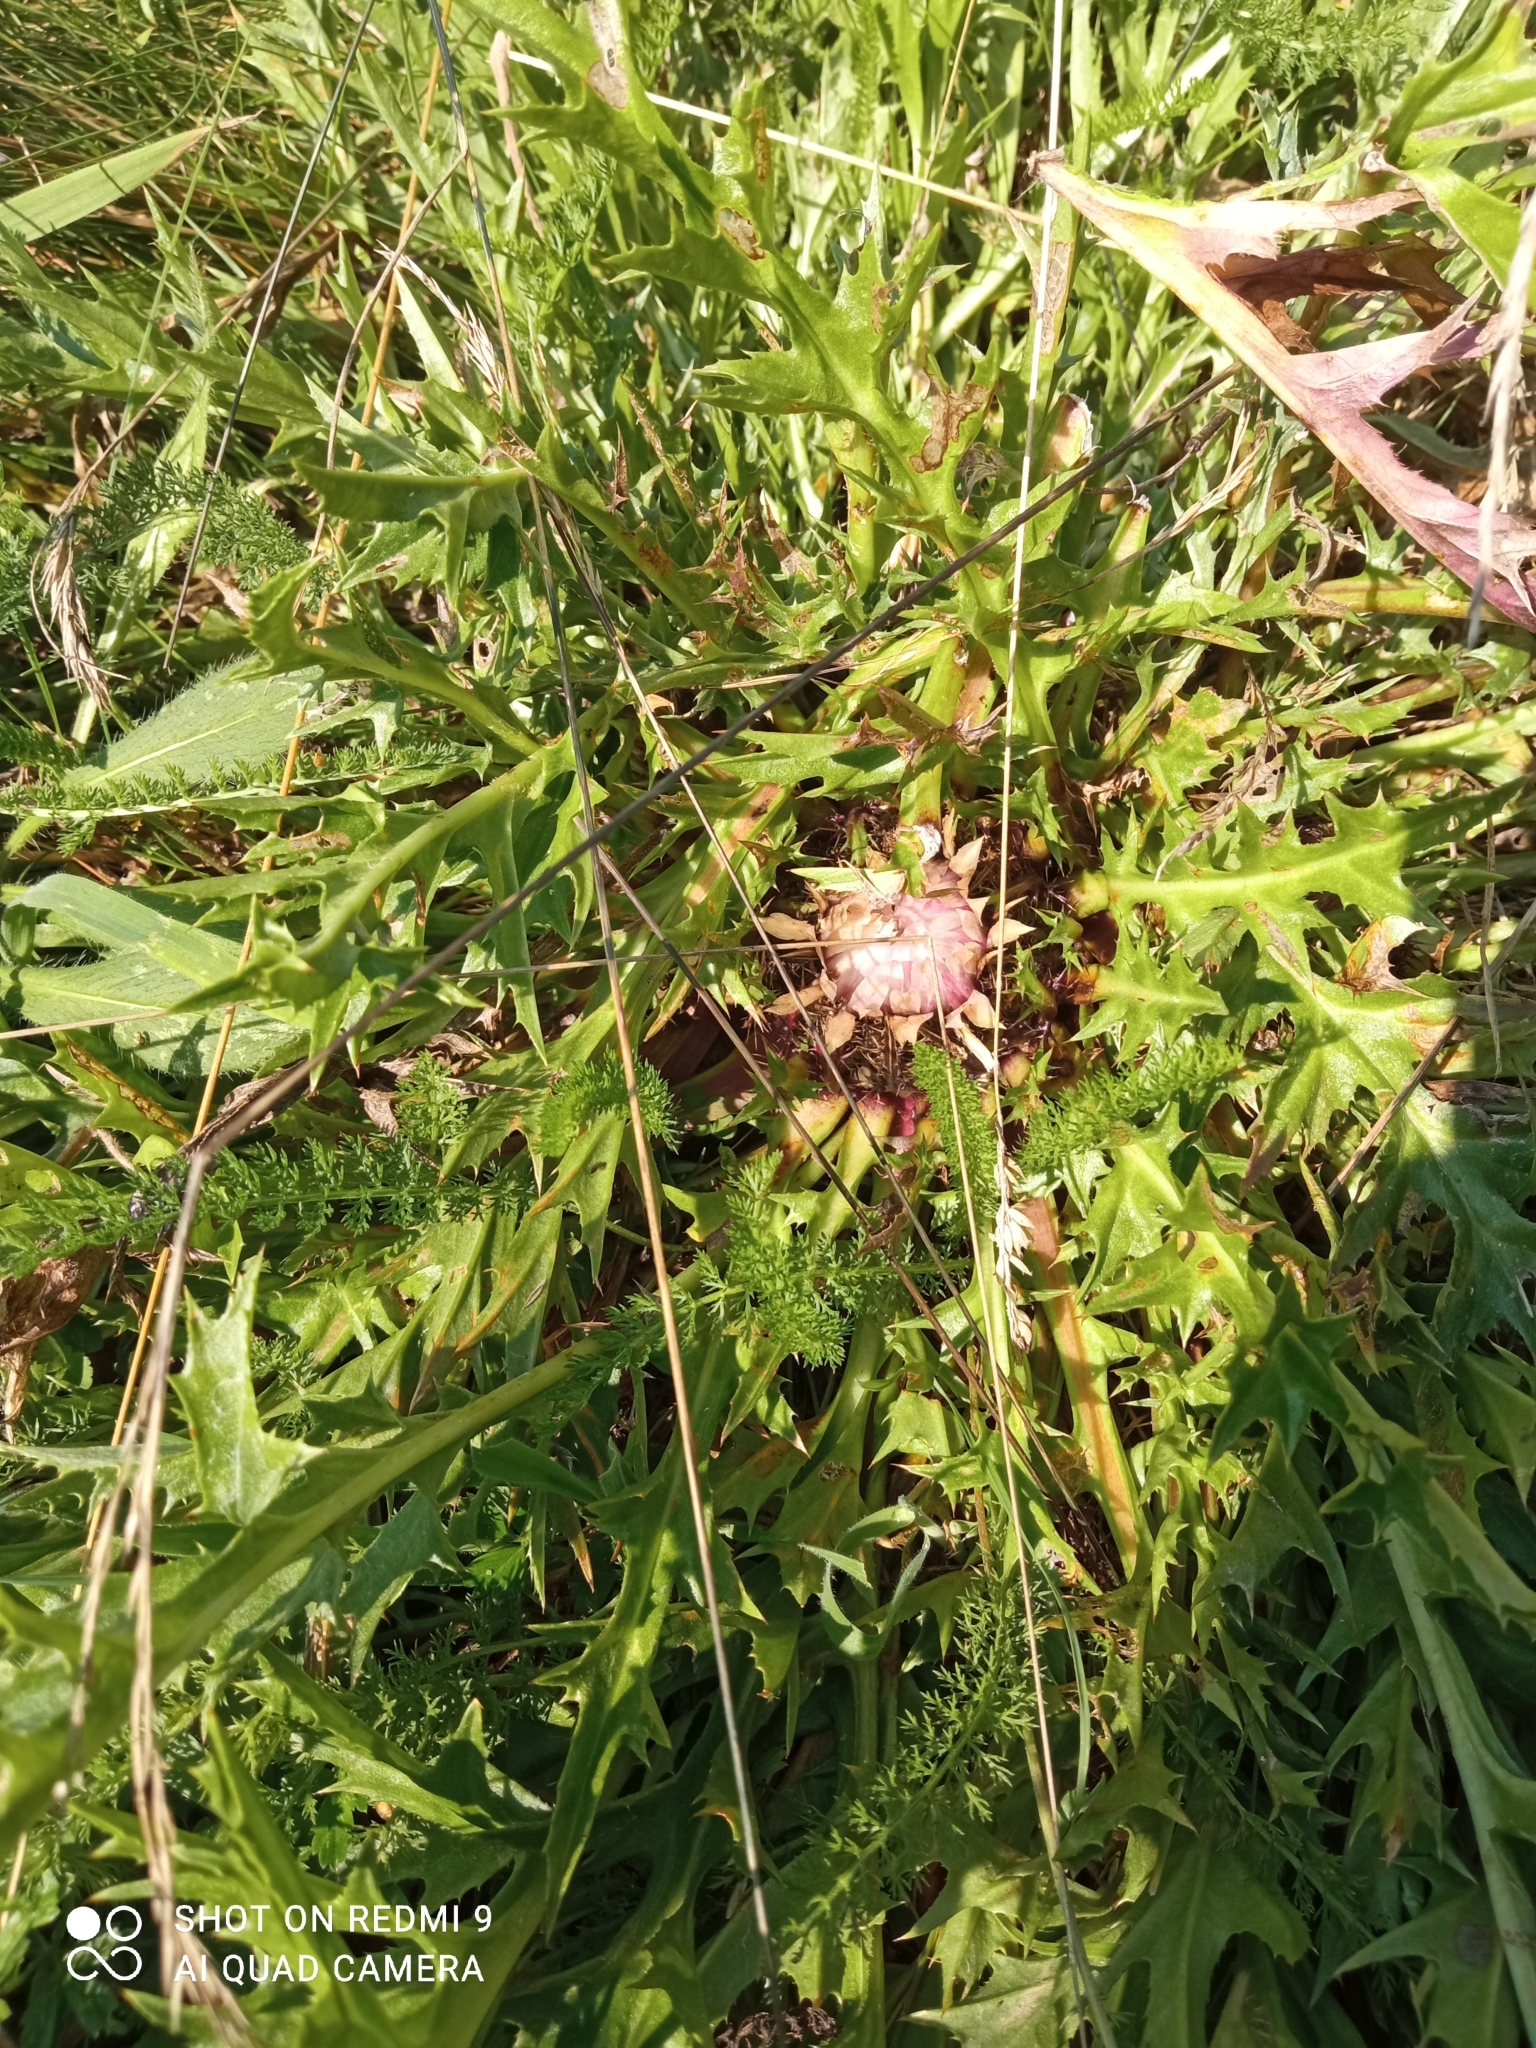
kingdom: Plantae
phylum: Tracheophyta
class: Magnoliopsida
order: Asterales
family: Asteraceae
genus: Carlina
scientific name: Carlina acaulis
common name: Stemless carline thistle
